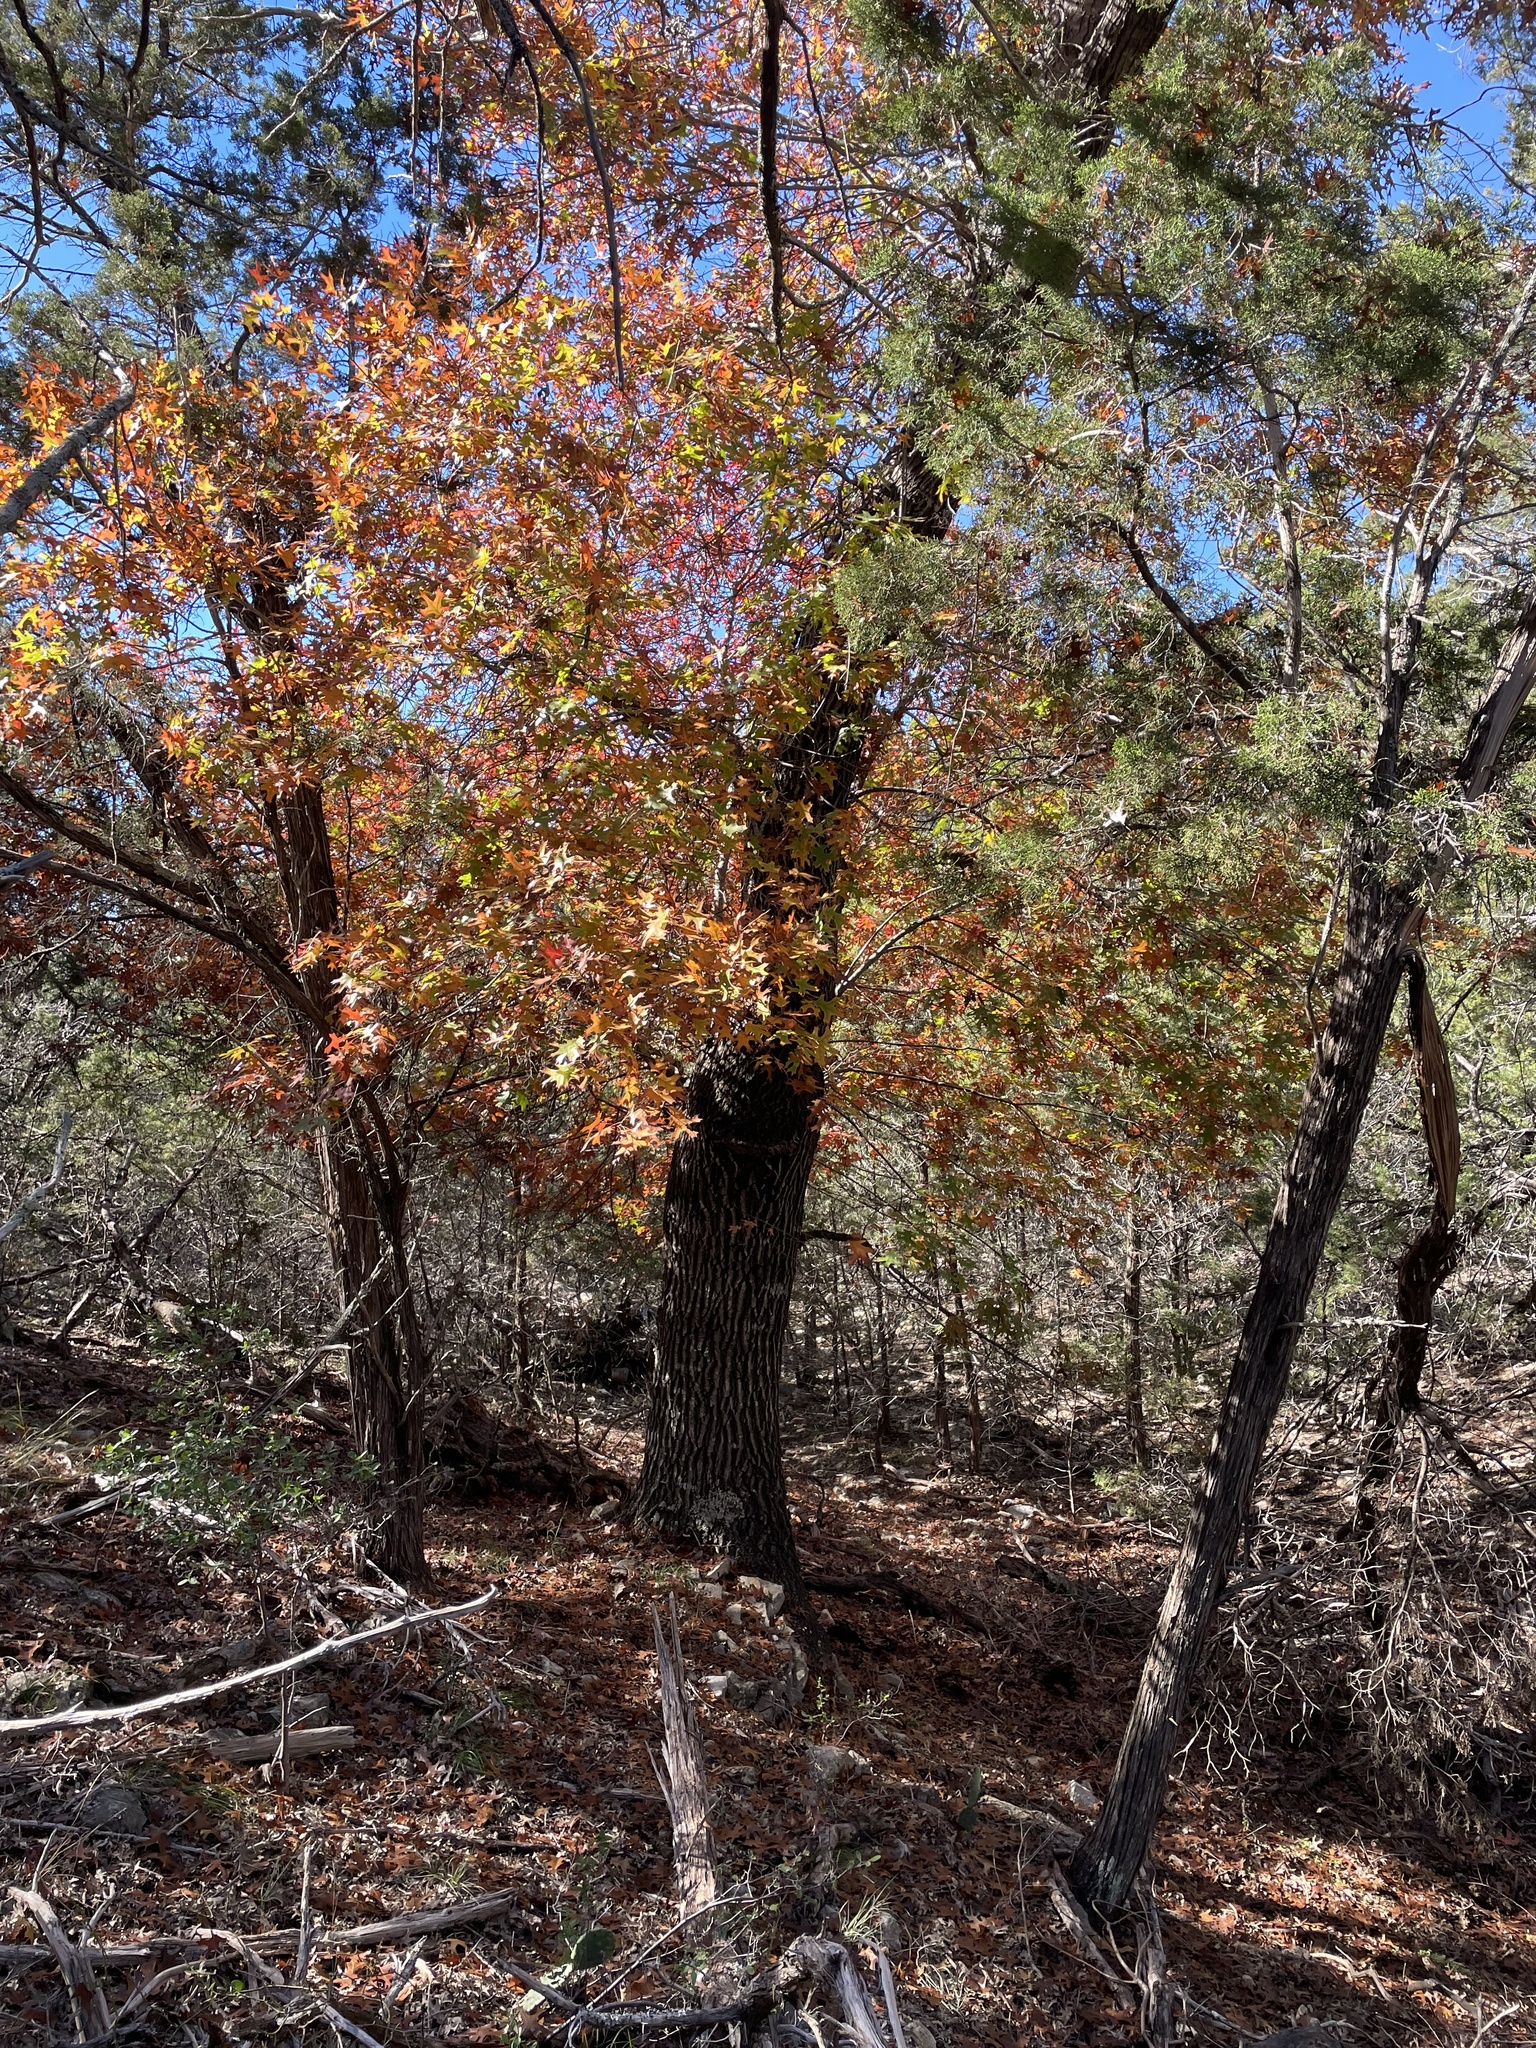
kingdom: Plantae
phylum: Tracheophyta
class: Magnoliopsida
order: Fagales
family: Fagaceae
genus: Quercus
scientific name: Quercus buckleyi
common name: Buckley oak
